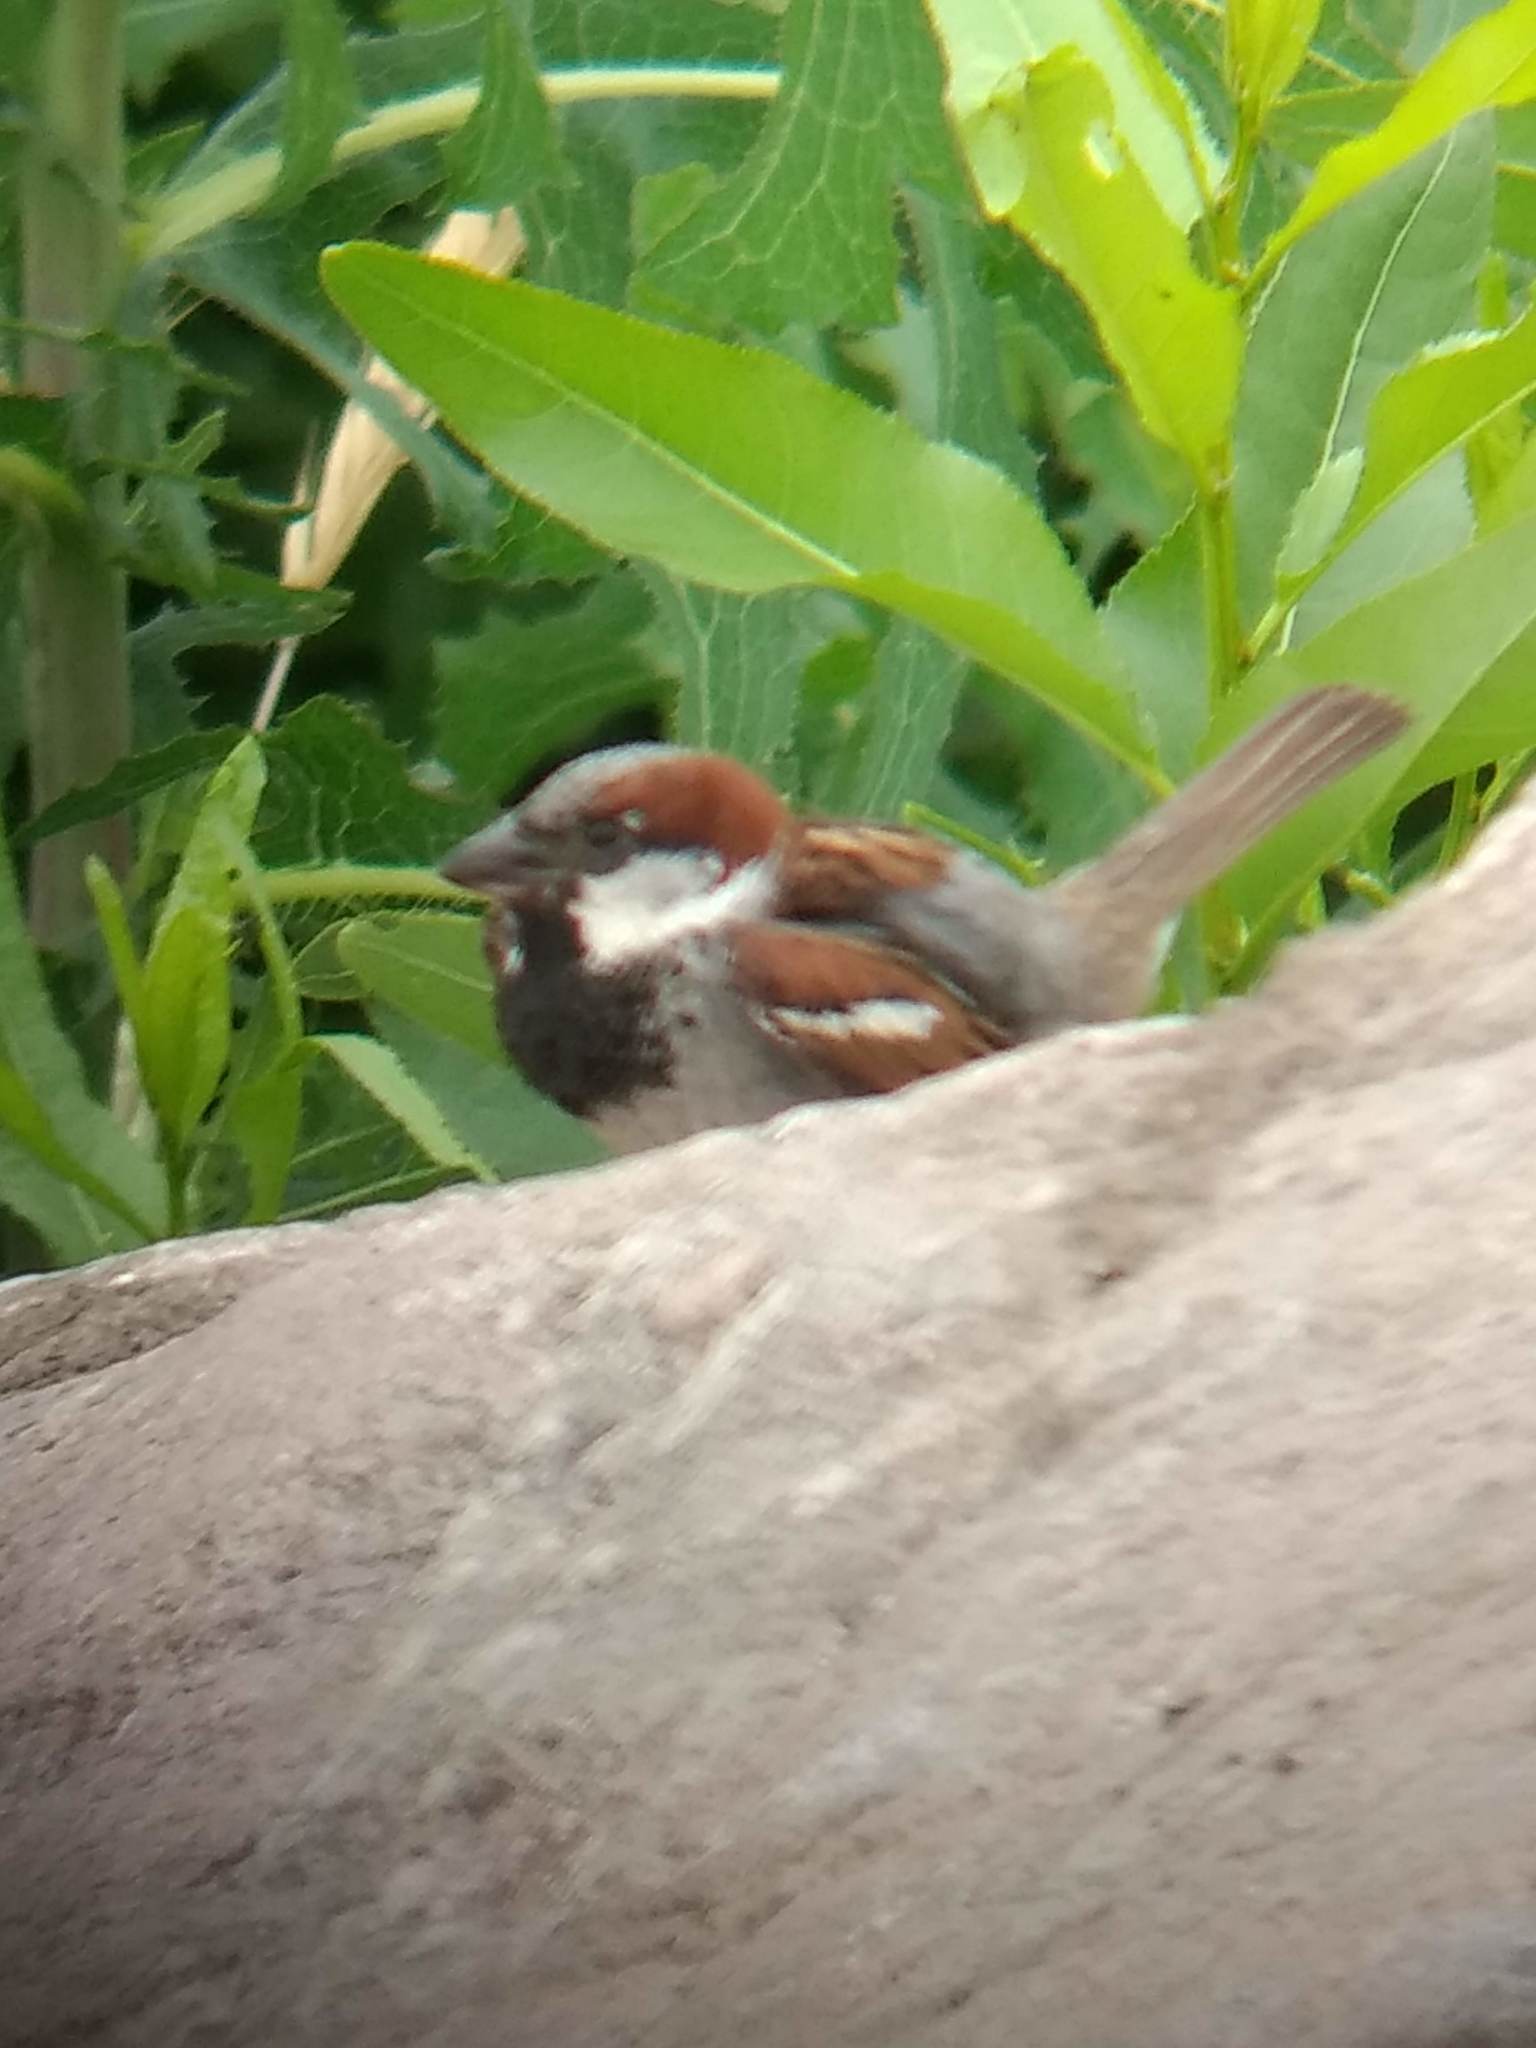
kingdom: Animalia
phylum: Chordata
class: Aves
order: Passeriformes
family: Passeridae
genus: Passer
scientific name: Passer domesticus
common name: House sparrow
